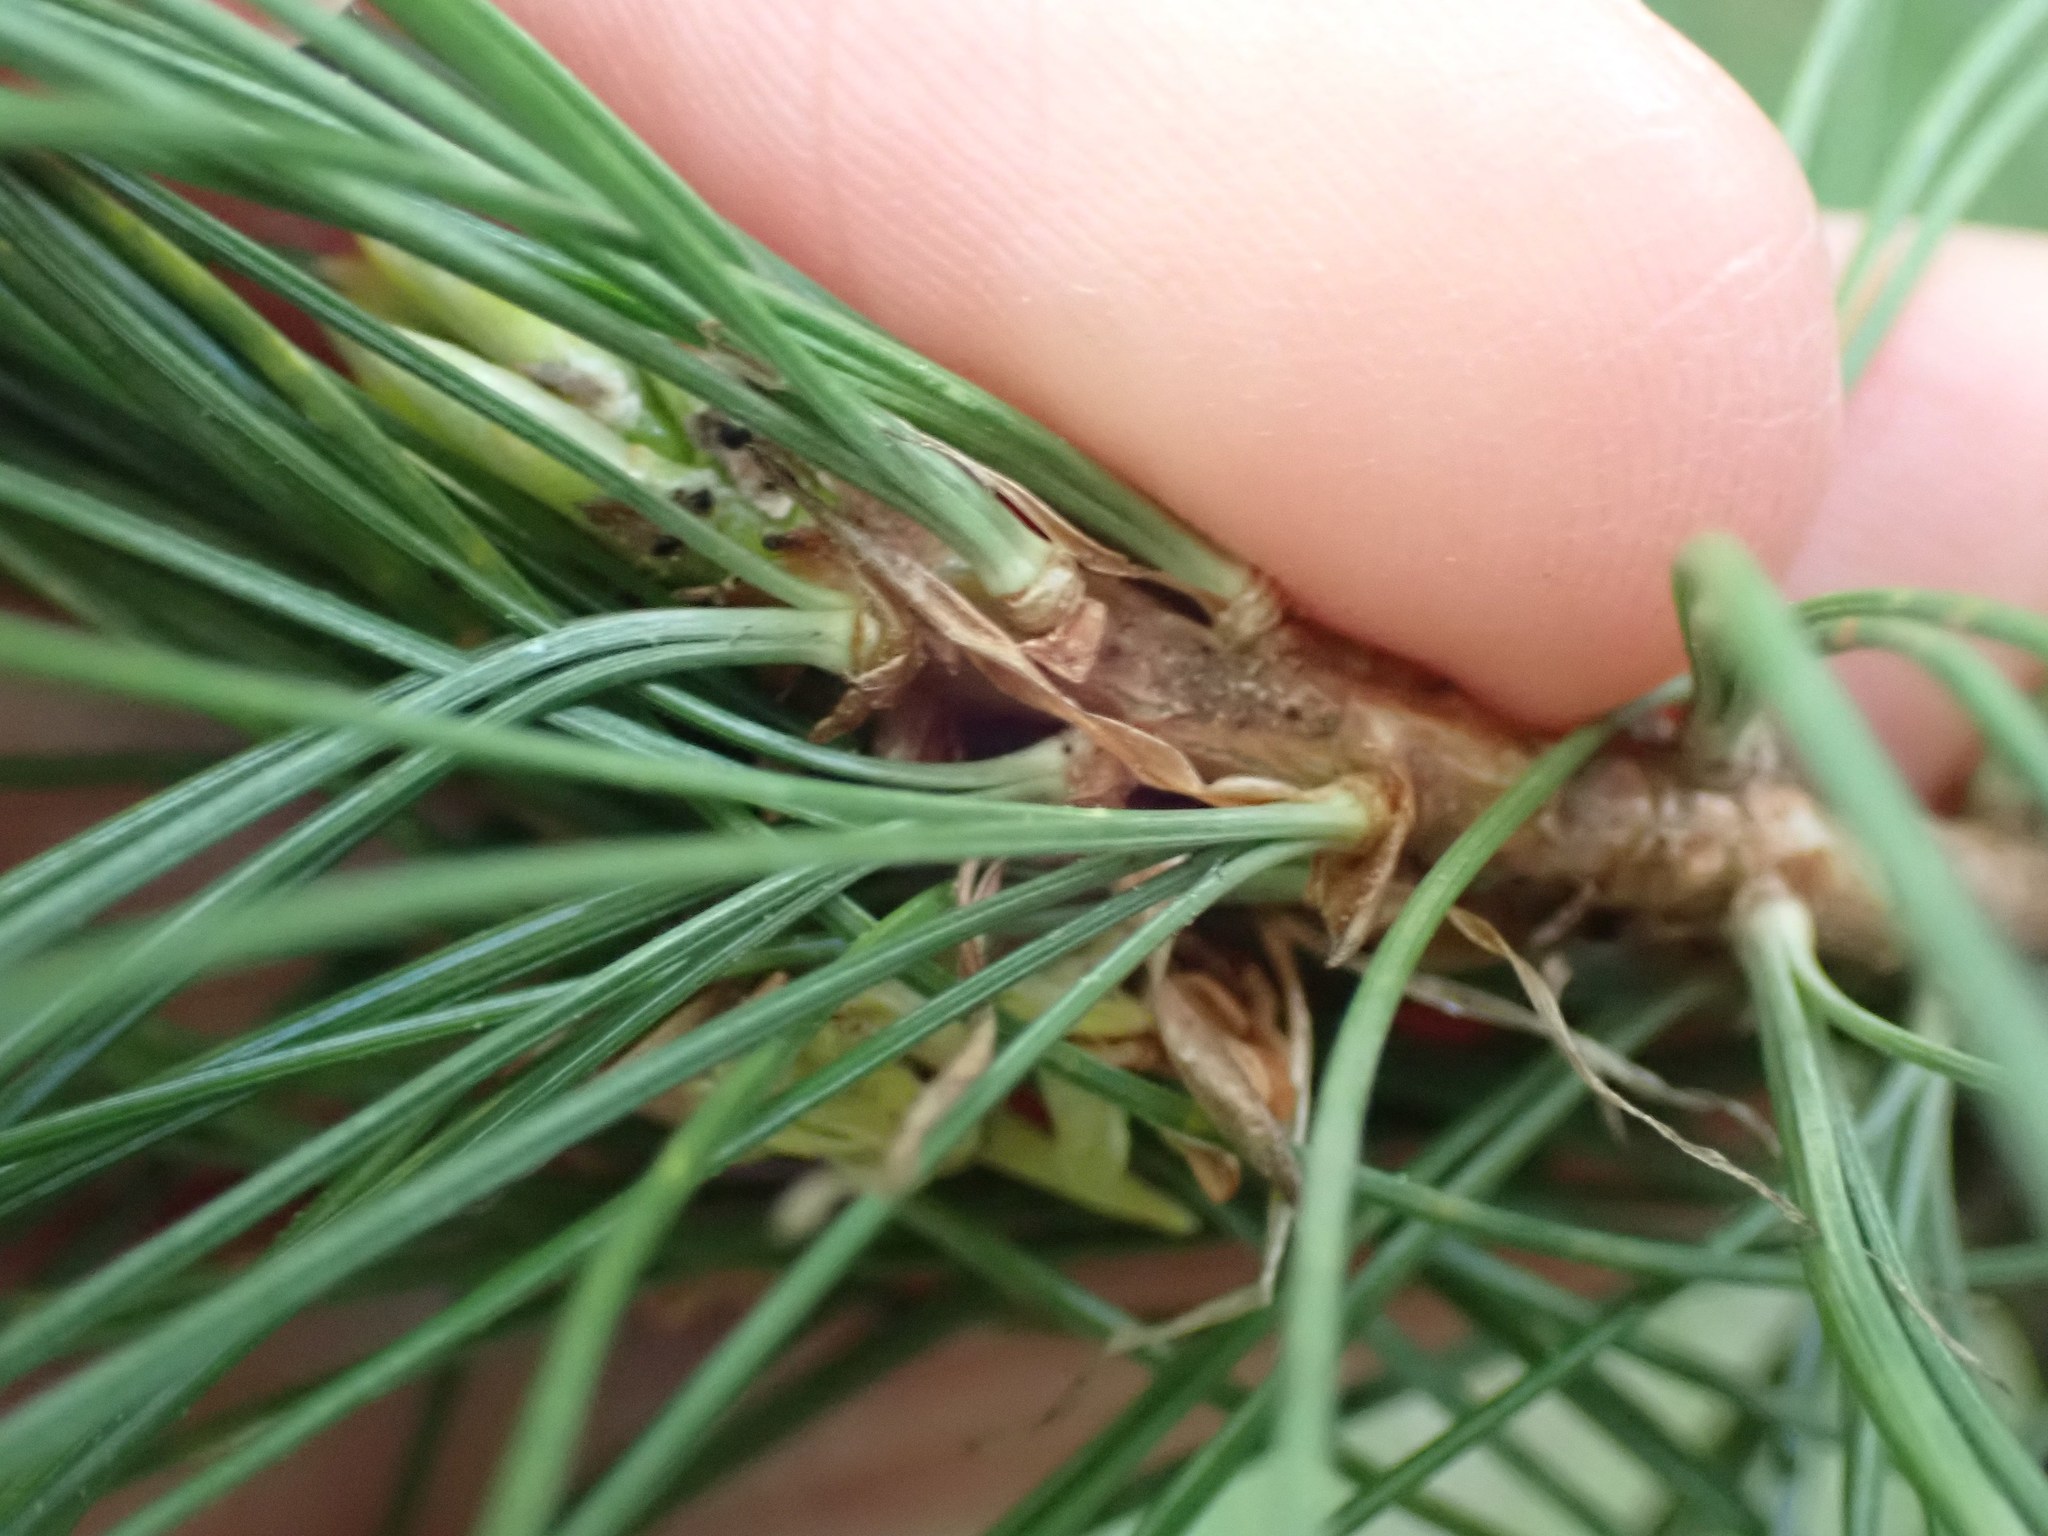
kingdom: Plantae
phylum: Tracheophyta
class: Pinopsida
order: Pinales
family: Pinaceae
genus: Pinus
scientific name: Pinus monticola
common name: Western white pine
